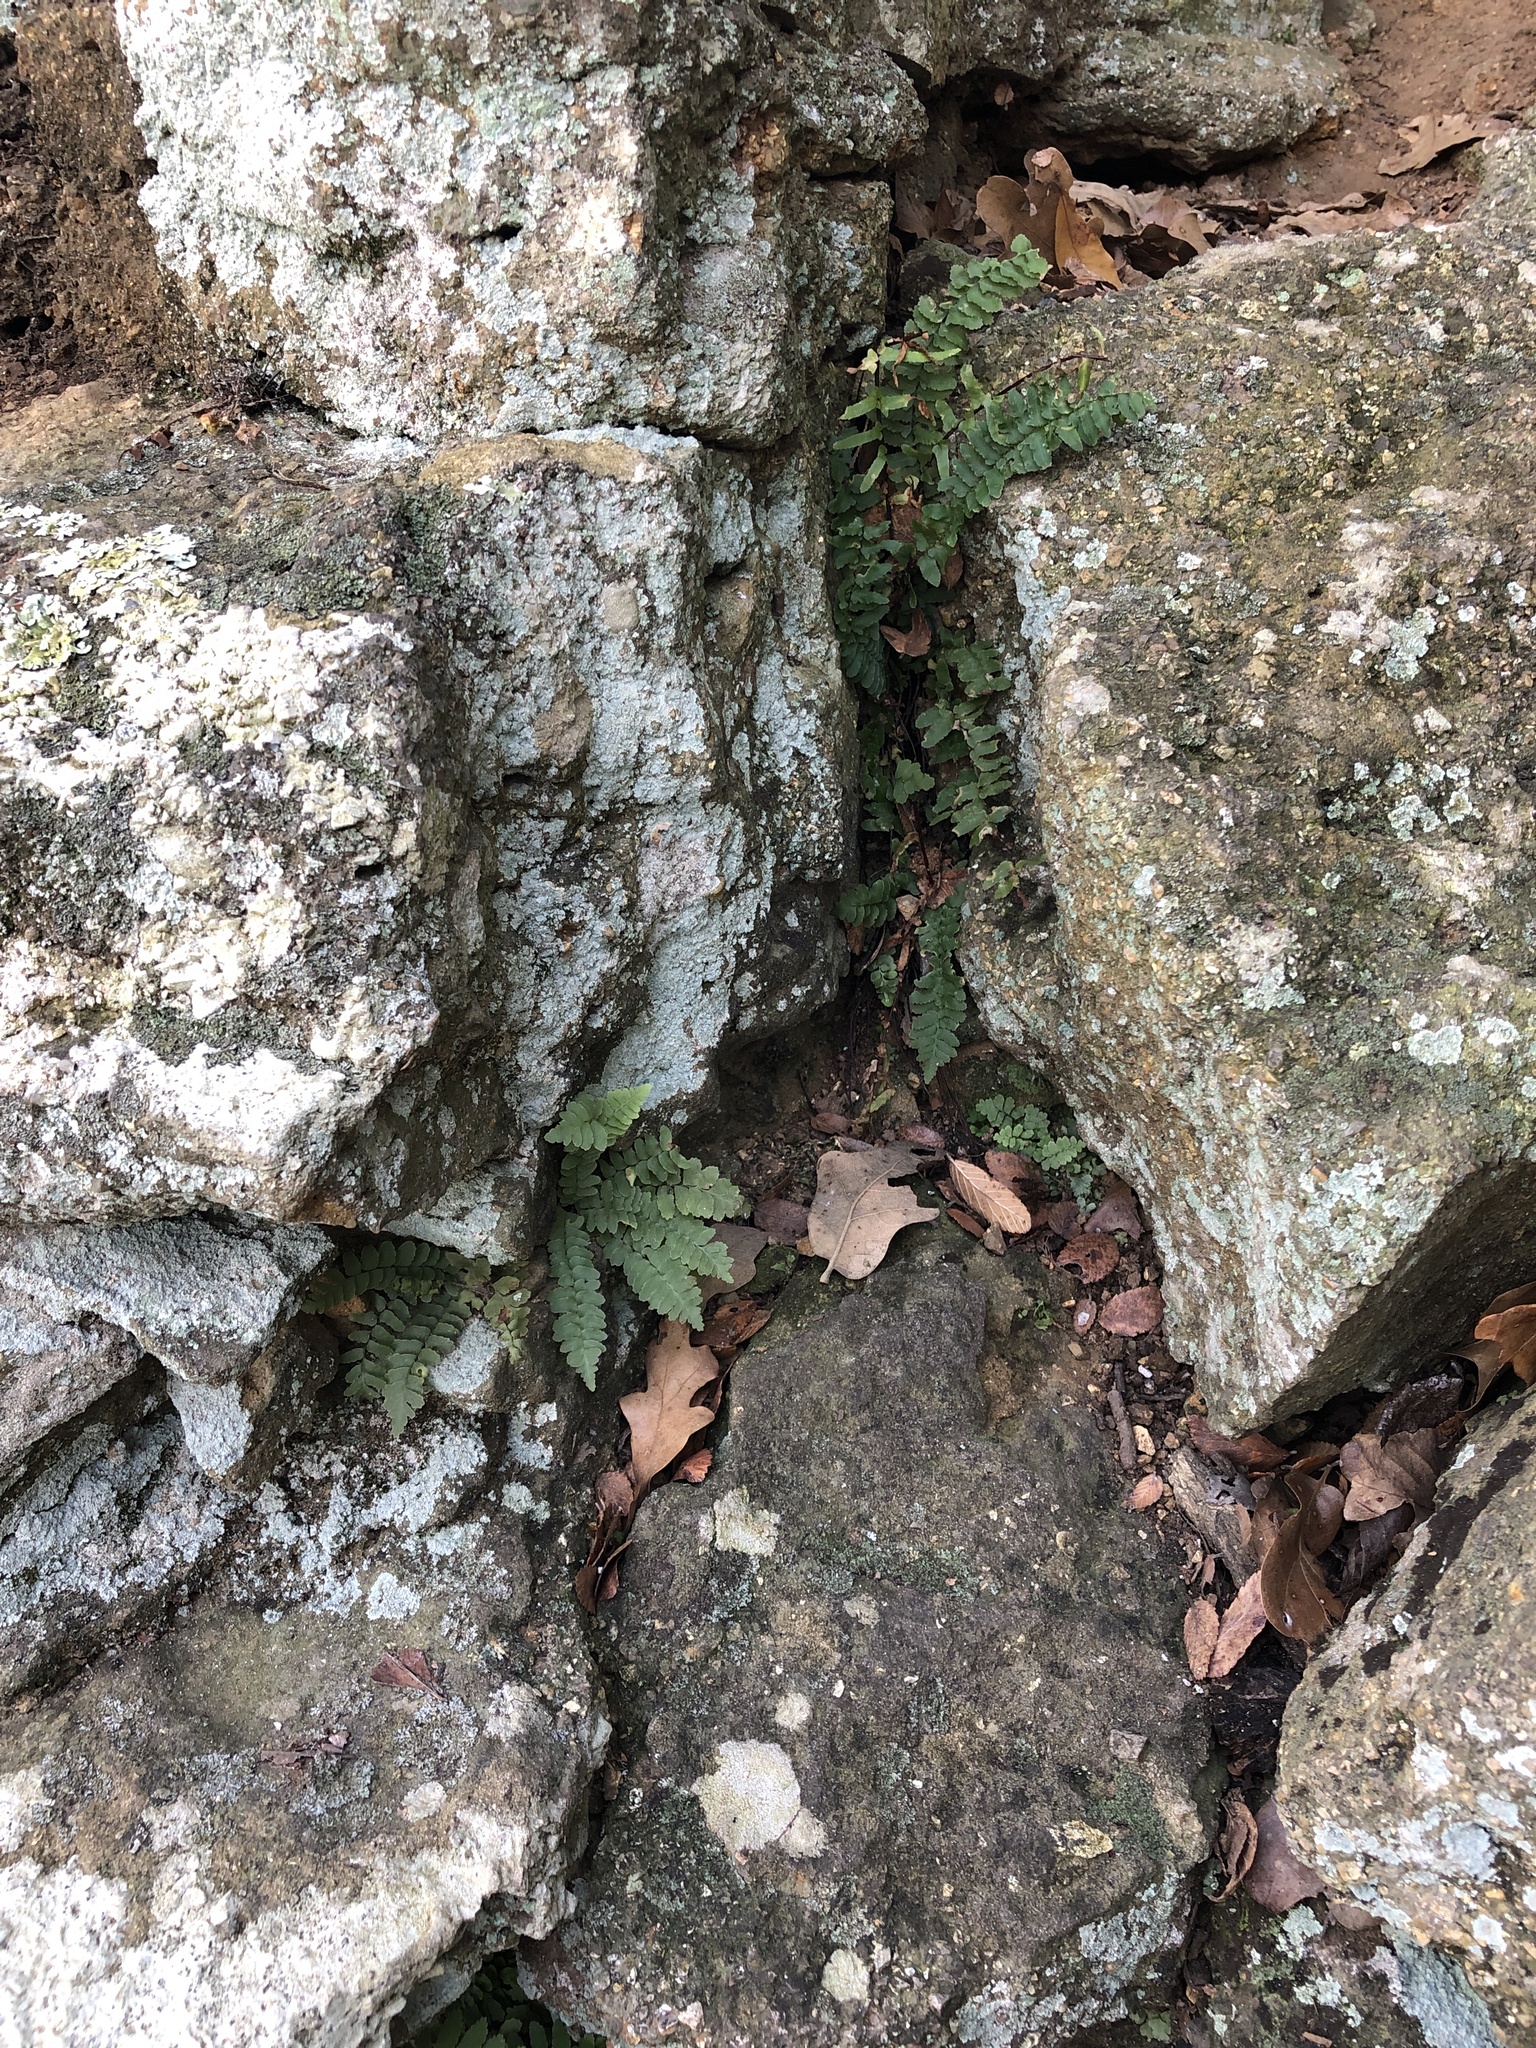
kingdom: Plantae
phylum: Tracheophyta
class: Polypodiopsida
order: Polypodiales
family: Aspleniaceae
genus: Asplenium
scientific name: Asplenium platyneuron
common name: Ebony spleenwort
